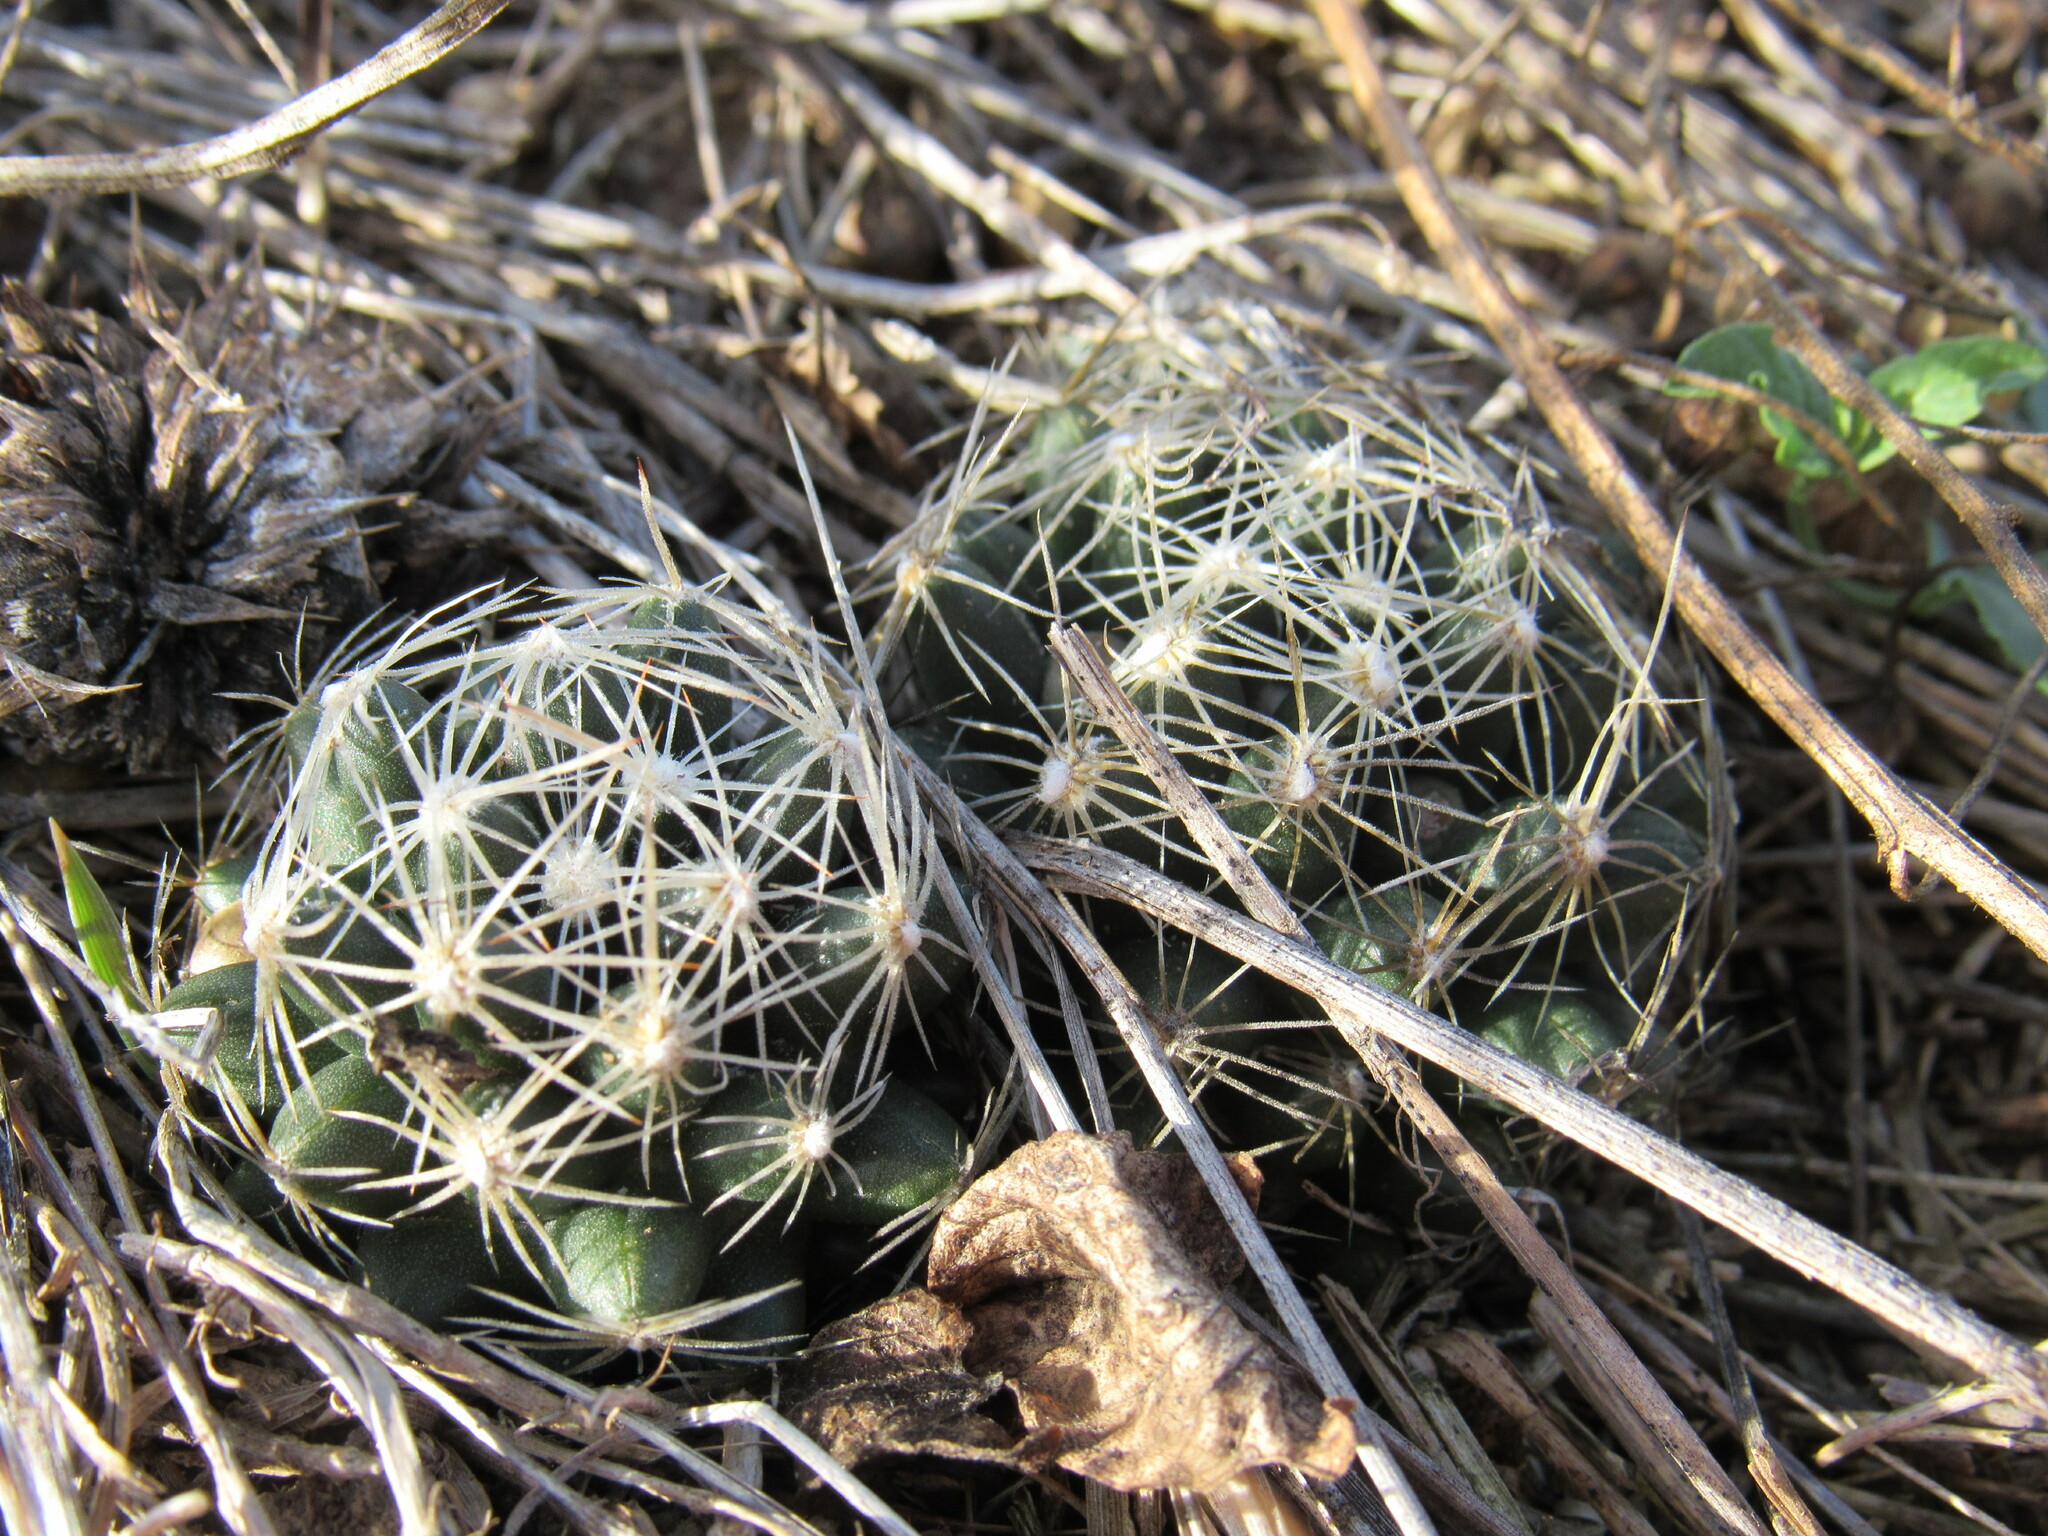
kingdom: Plantae
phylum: Tracheophyta
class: Magnoliopsida
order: Caryophyllales
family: Cactaceae
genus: Pelecyphora
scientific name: Pelecyphora missouriensis
